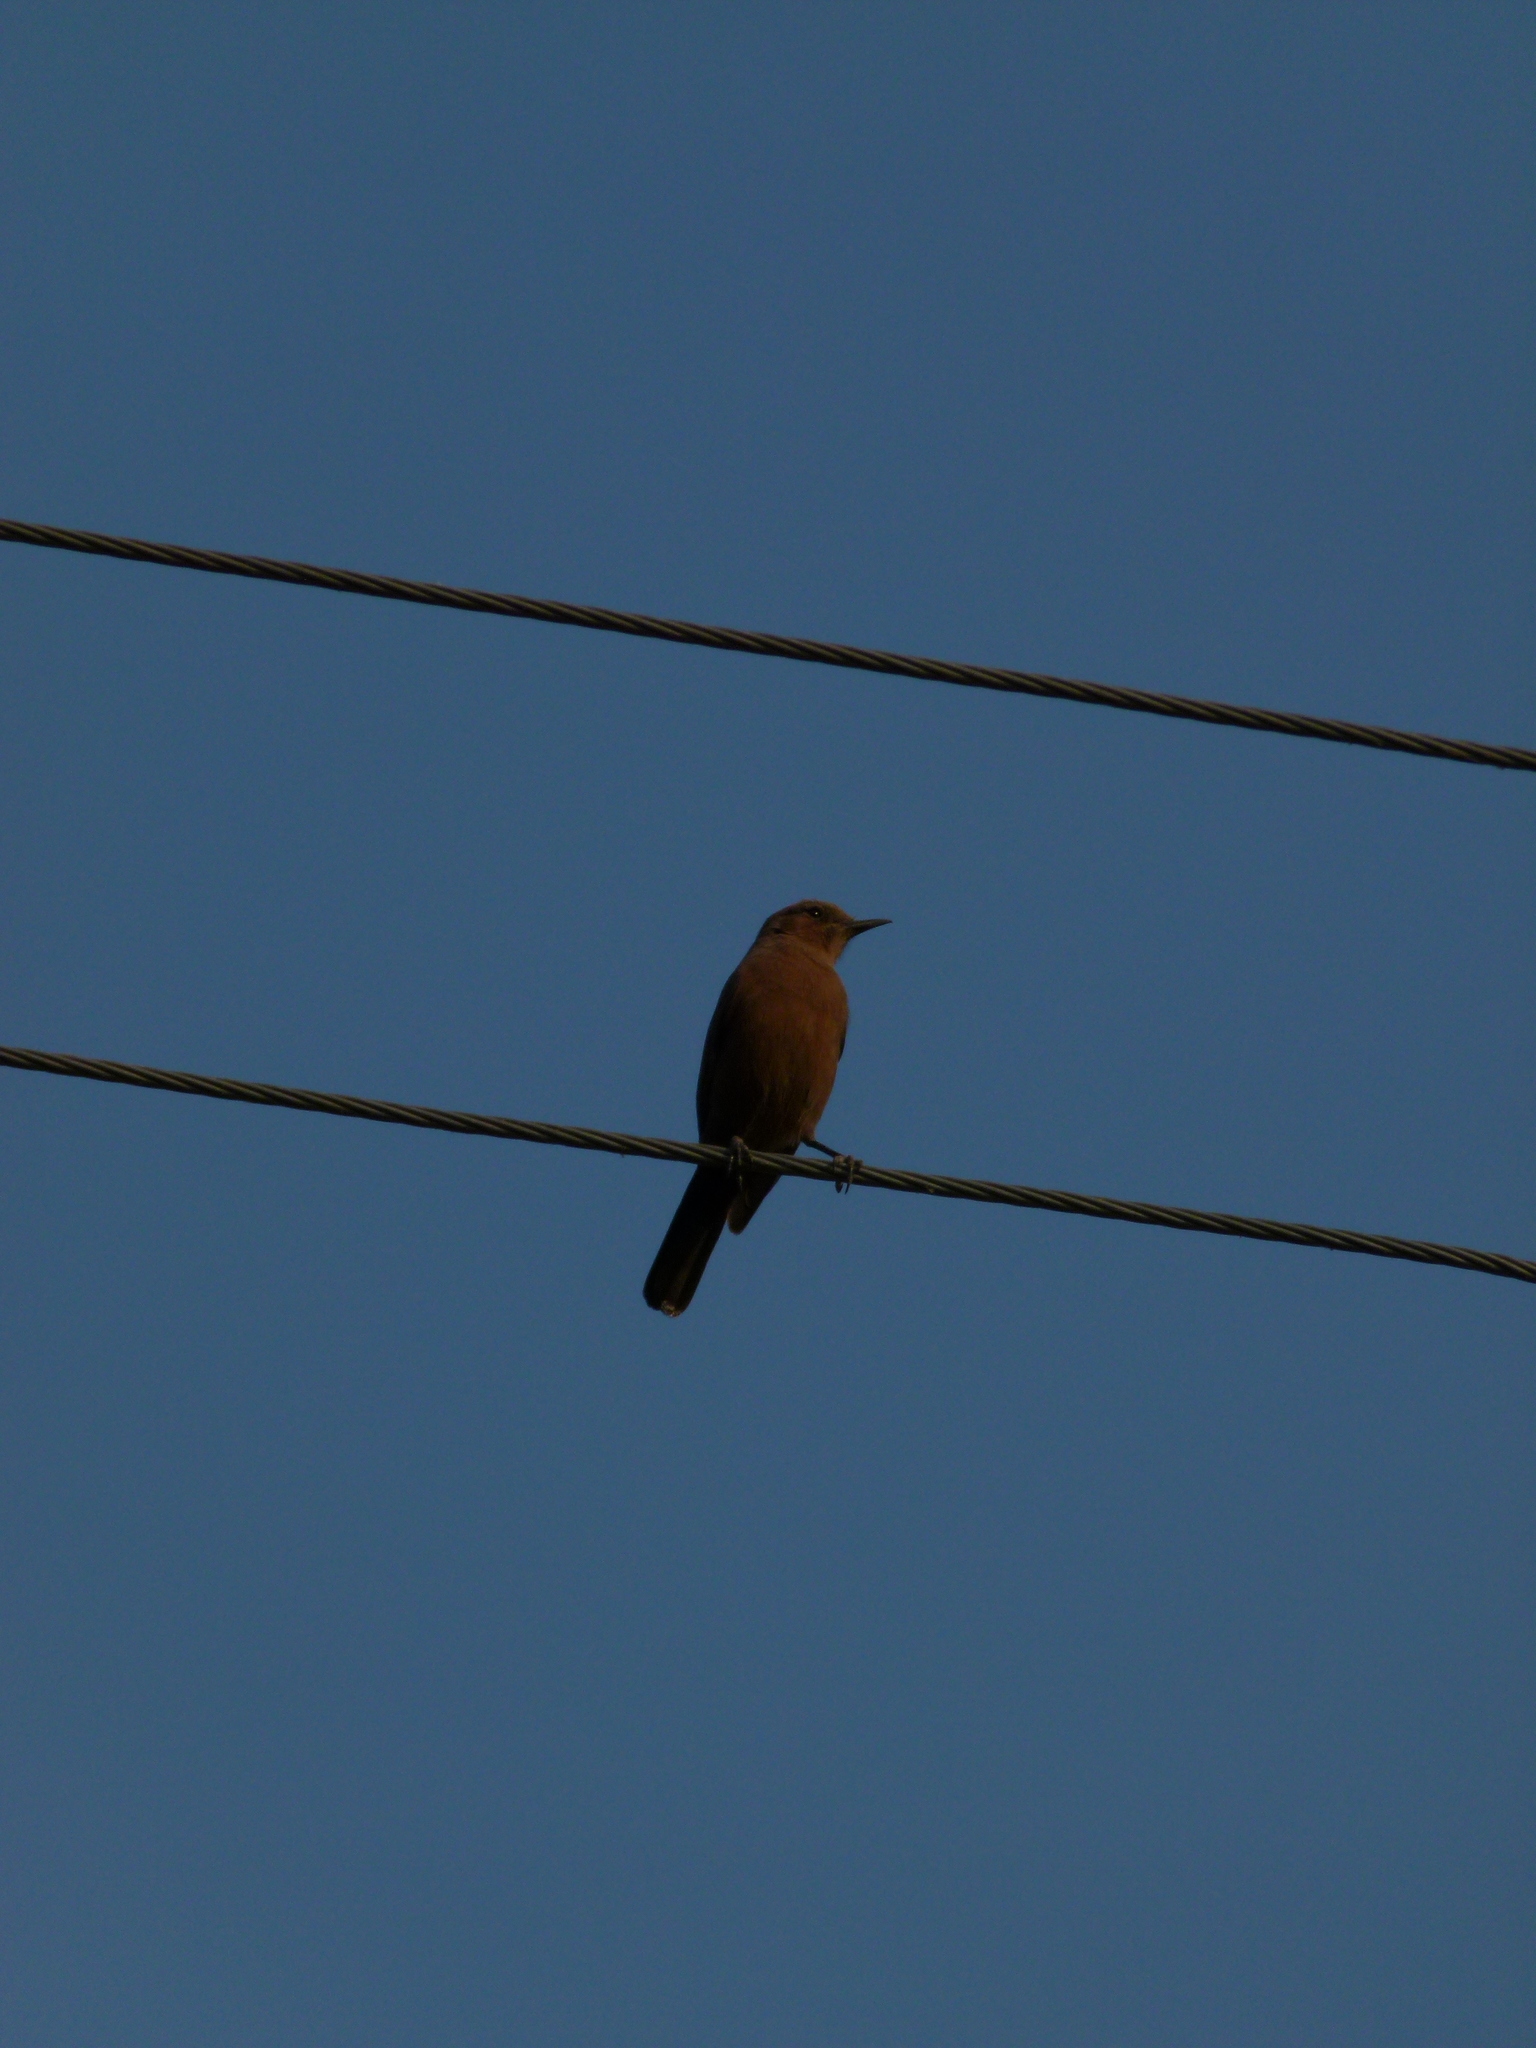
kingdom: Animalia
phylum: Chordata
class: Aves
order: Passeriformes
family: Muscicapidae
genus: Oenanthe
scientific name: Oenanthe fusca
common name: Brown rock chat
